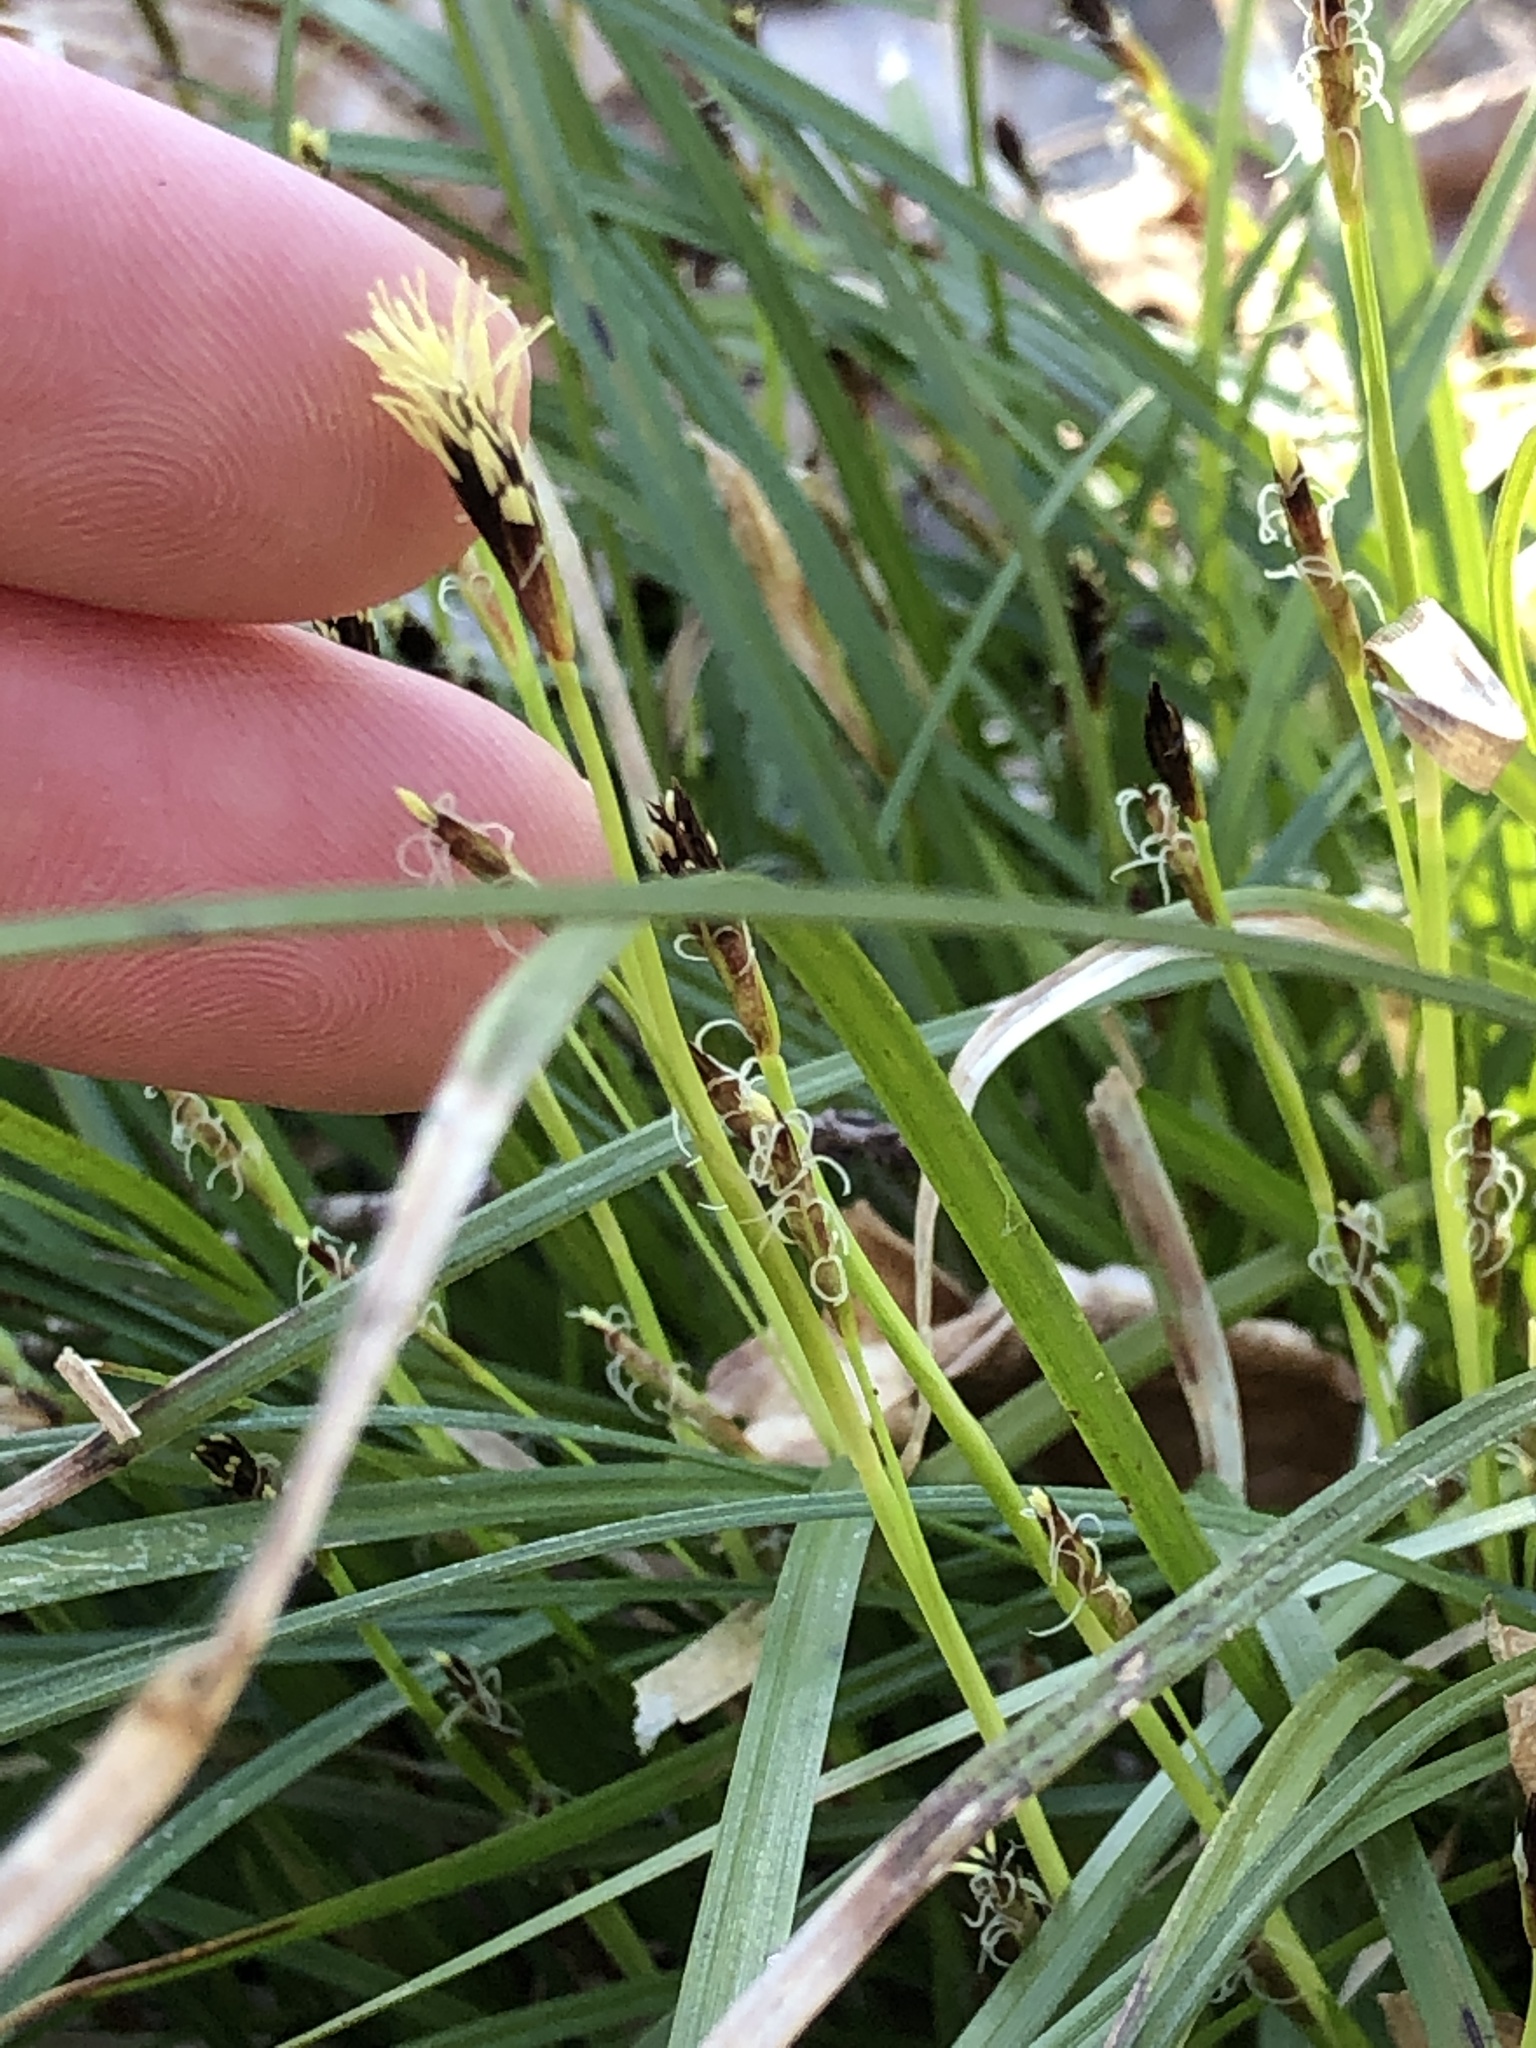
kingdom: Plantae
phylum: Tracheophyta
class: Liliopsida
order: Poales
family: Cyperaceae
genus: Carex
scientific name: Carex pedunculata
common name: Pedunculate sedge
